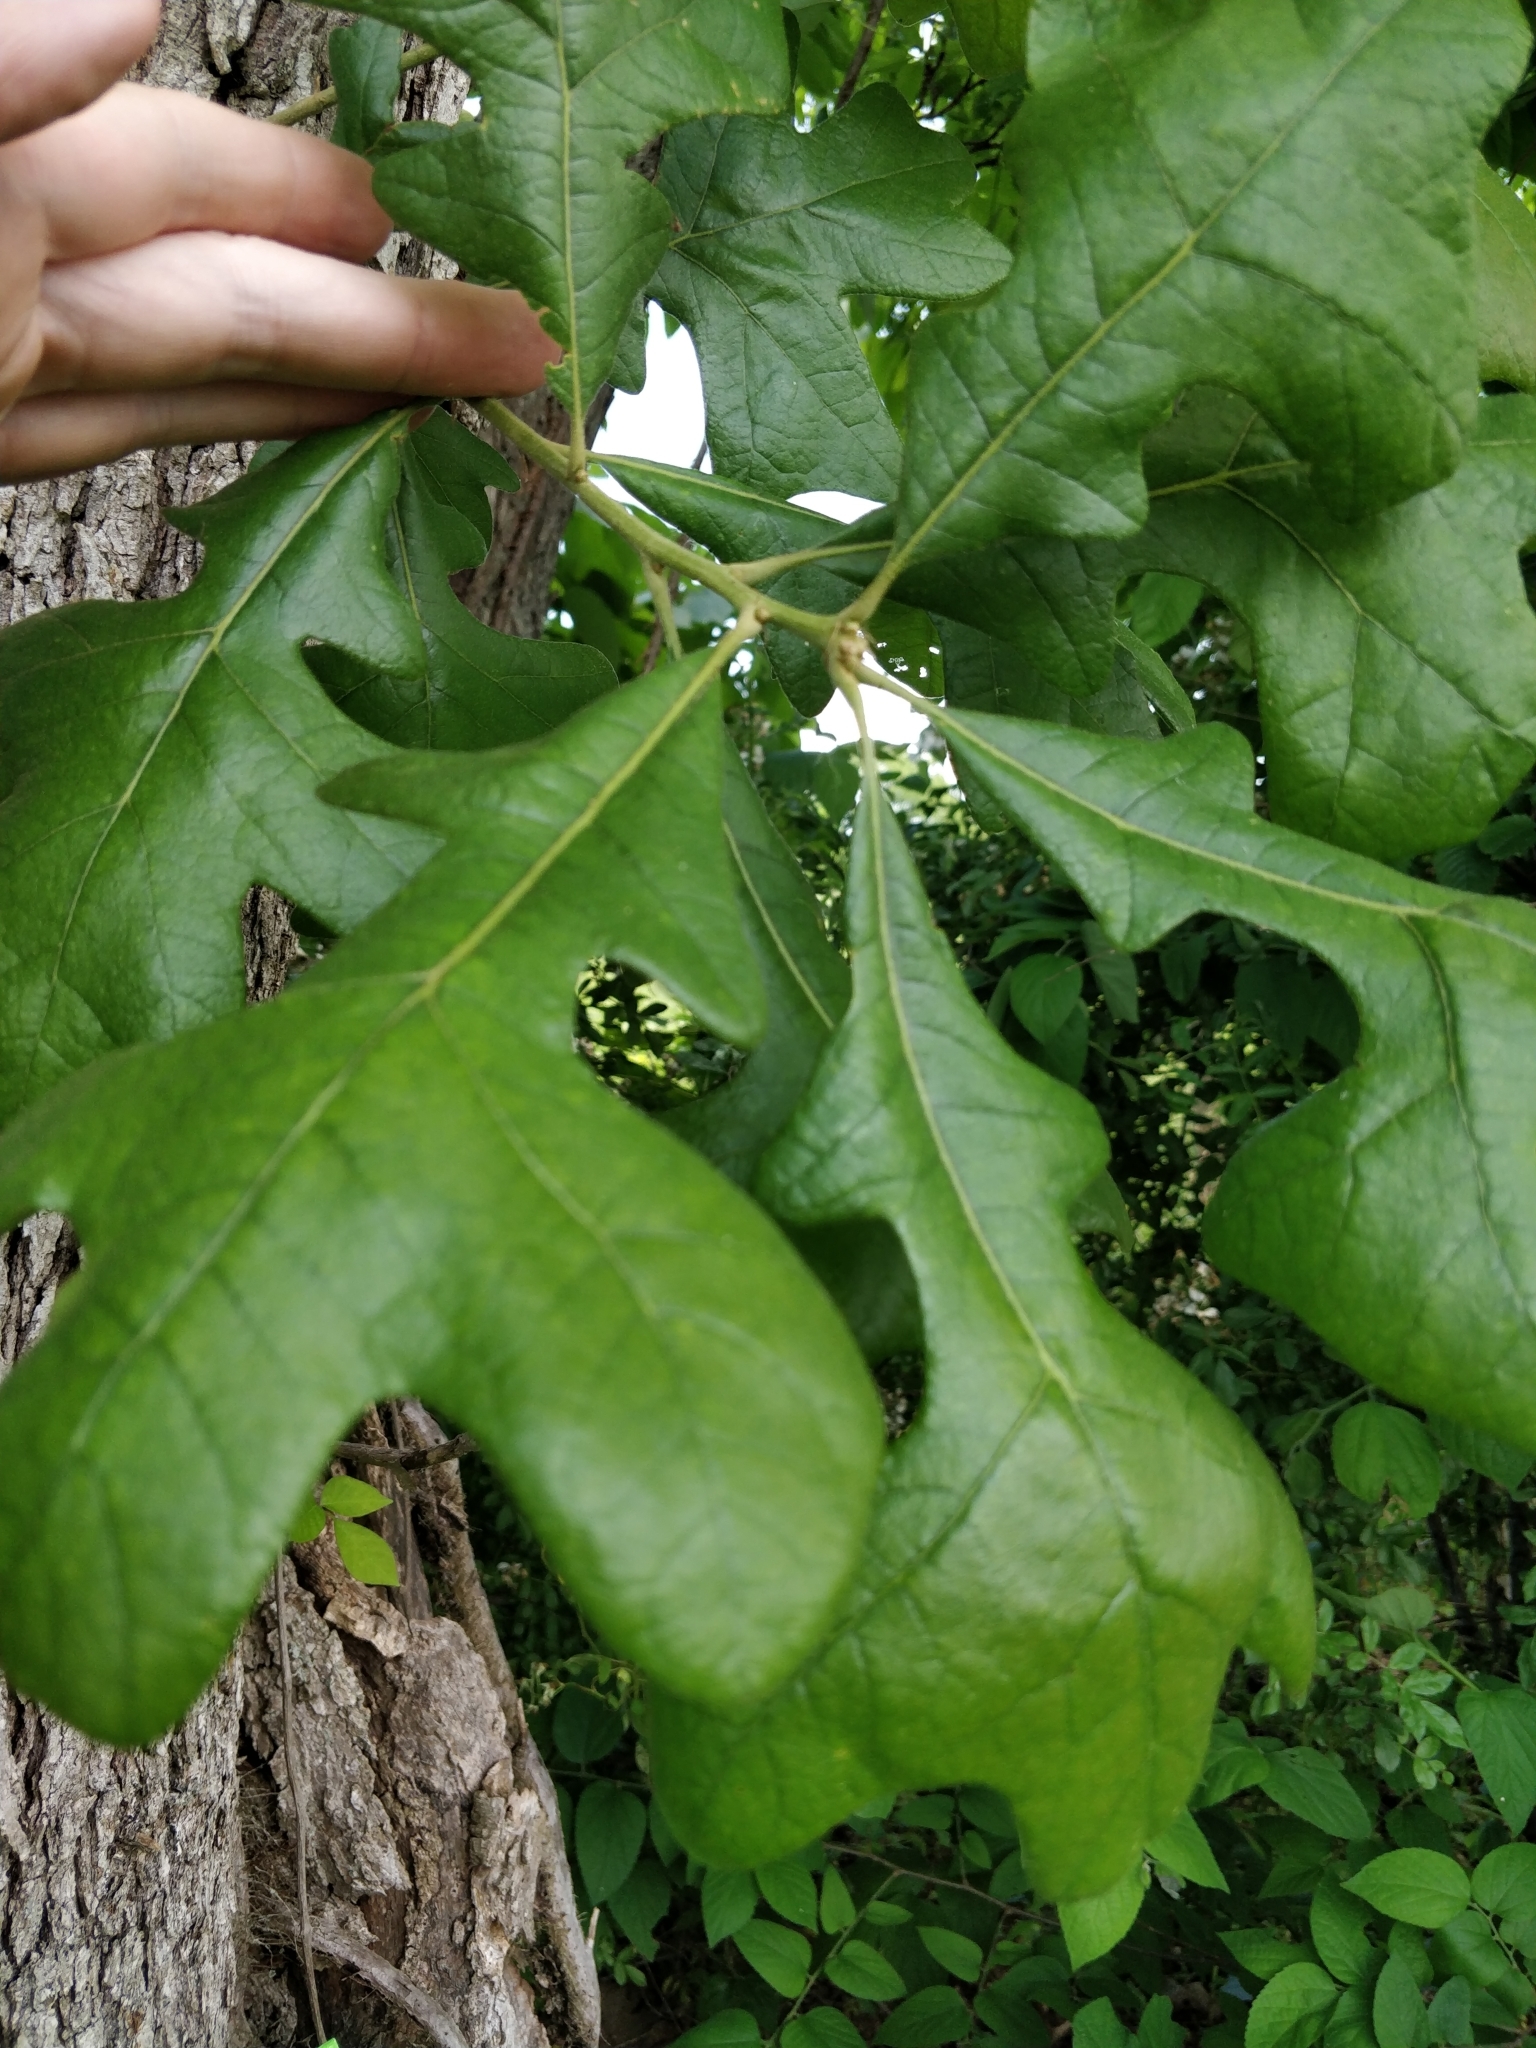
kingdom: Plantae
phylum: Tracheophyta
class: Magnoliopsida
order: Fagales
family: Fagaceae
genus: Quercus
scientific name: Quercus stellata
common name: Post oak
